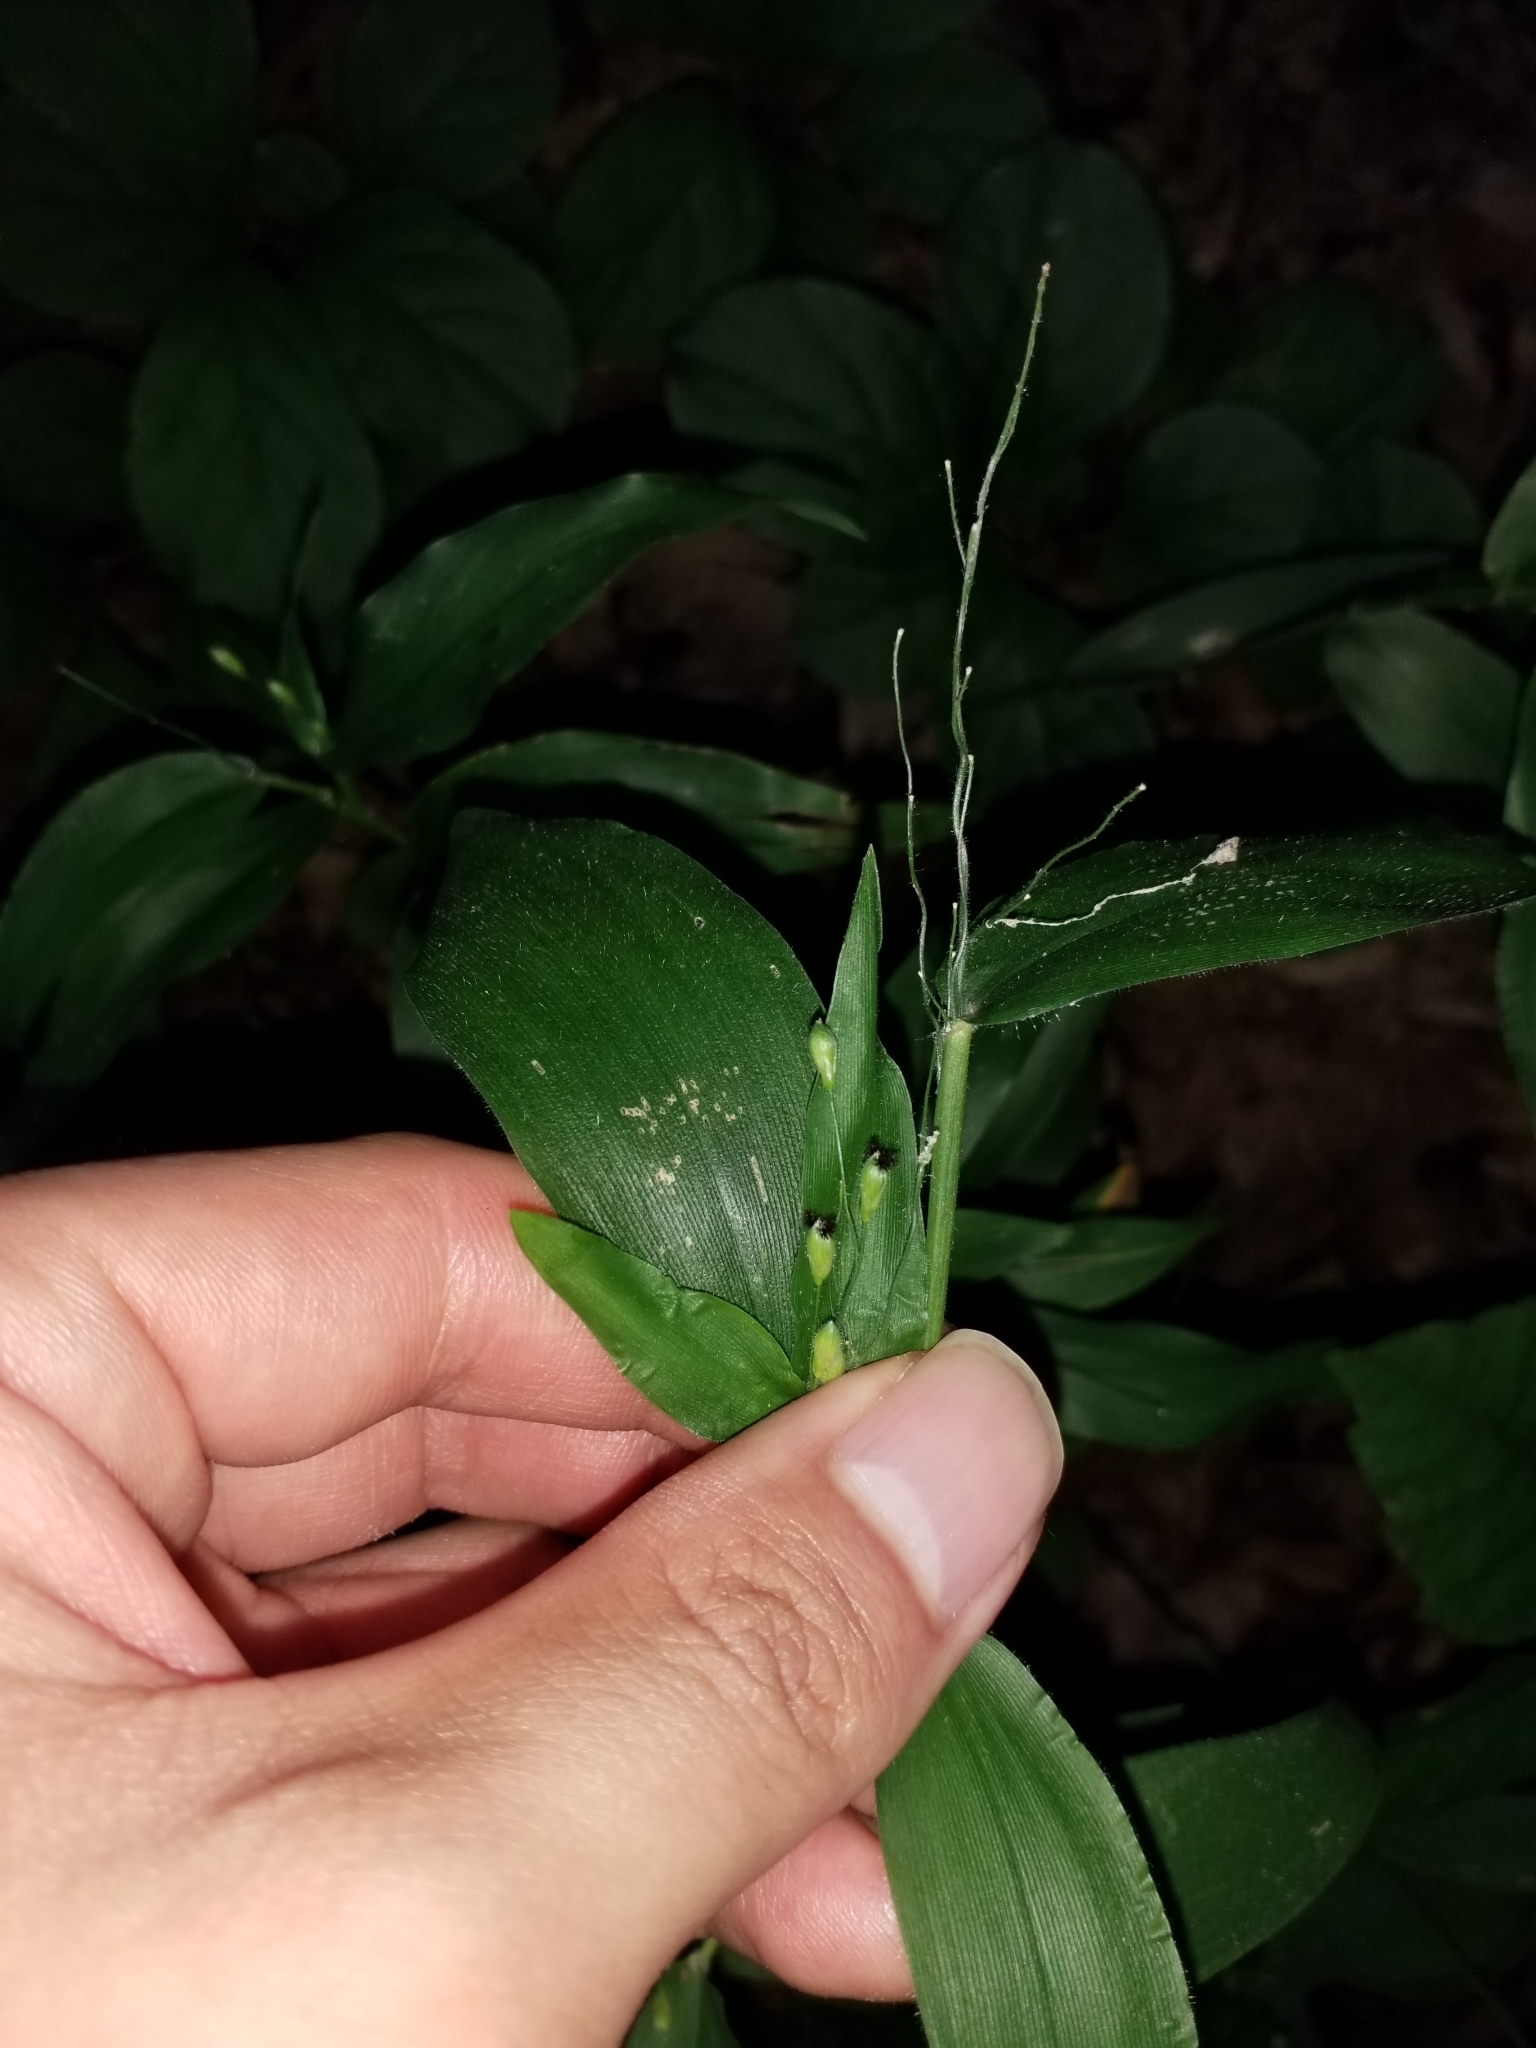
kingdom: Plantae
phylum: Tracheophyta
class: Liliopsida
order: Poales
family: Poaceae
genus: Dichanthelium
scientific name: Dichanthelium boscii
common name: Bosc's panic grass
